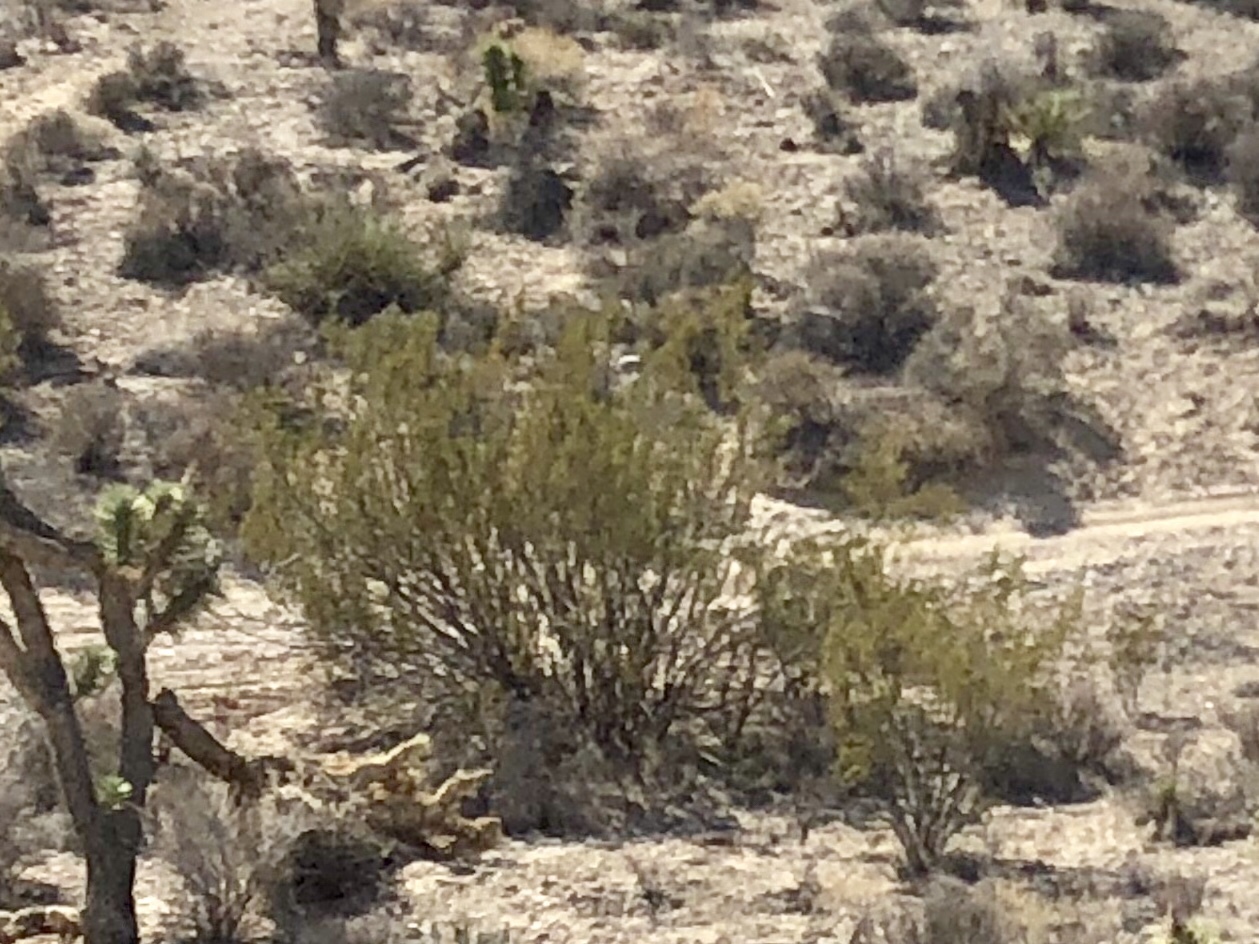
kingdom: Plantae
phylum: Tracheophyta
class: Magnoliopsida
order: Zygophyllales
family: Zygophyllaceae
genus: Larrea
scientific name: Larrea tridentata
